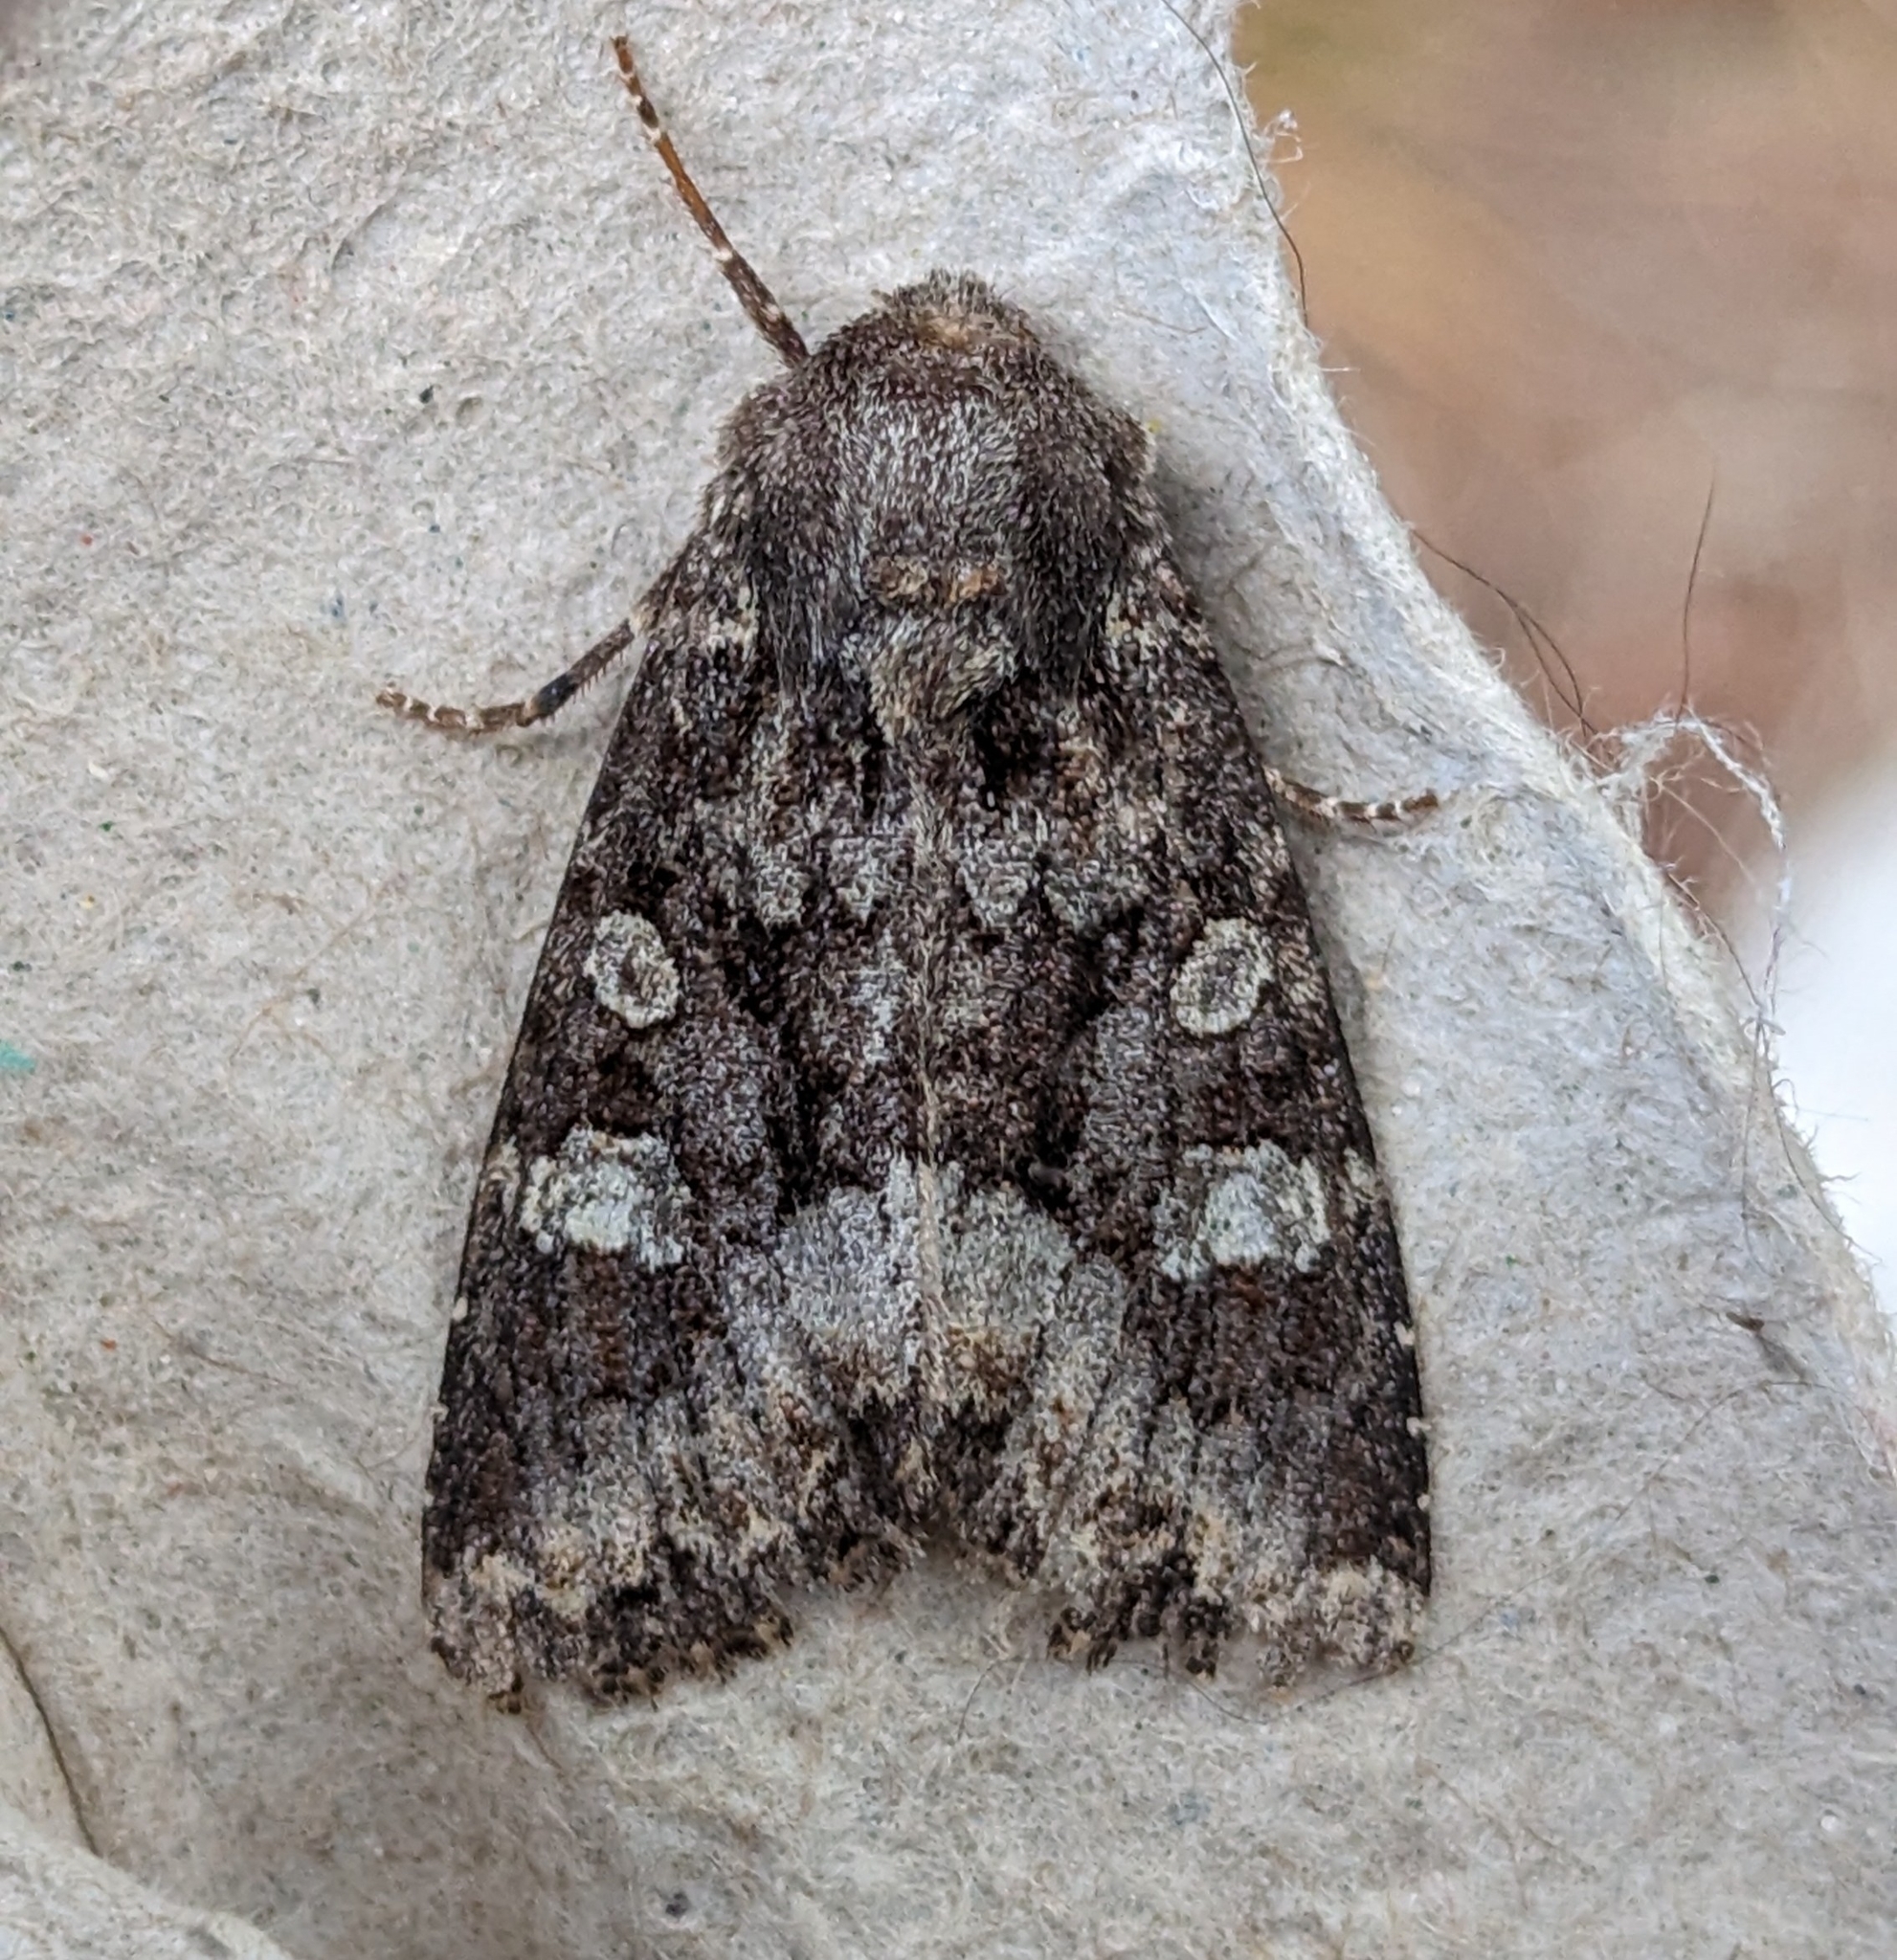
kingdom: Animalia
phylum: Arthropoda
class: Insecta
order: Lepidoptera
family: Noctuidae
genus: Apamea
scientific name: Apamea amputatrix
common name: Yellow-headed cutworm moth
